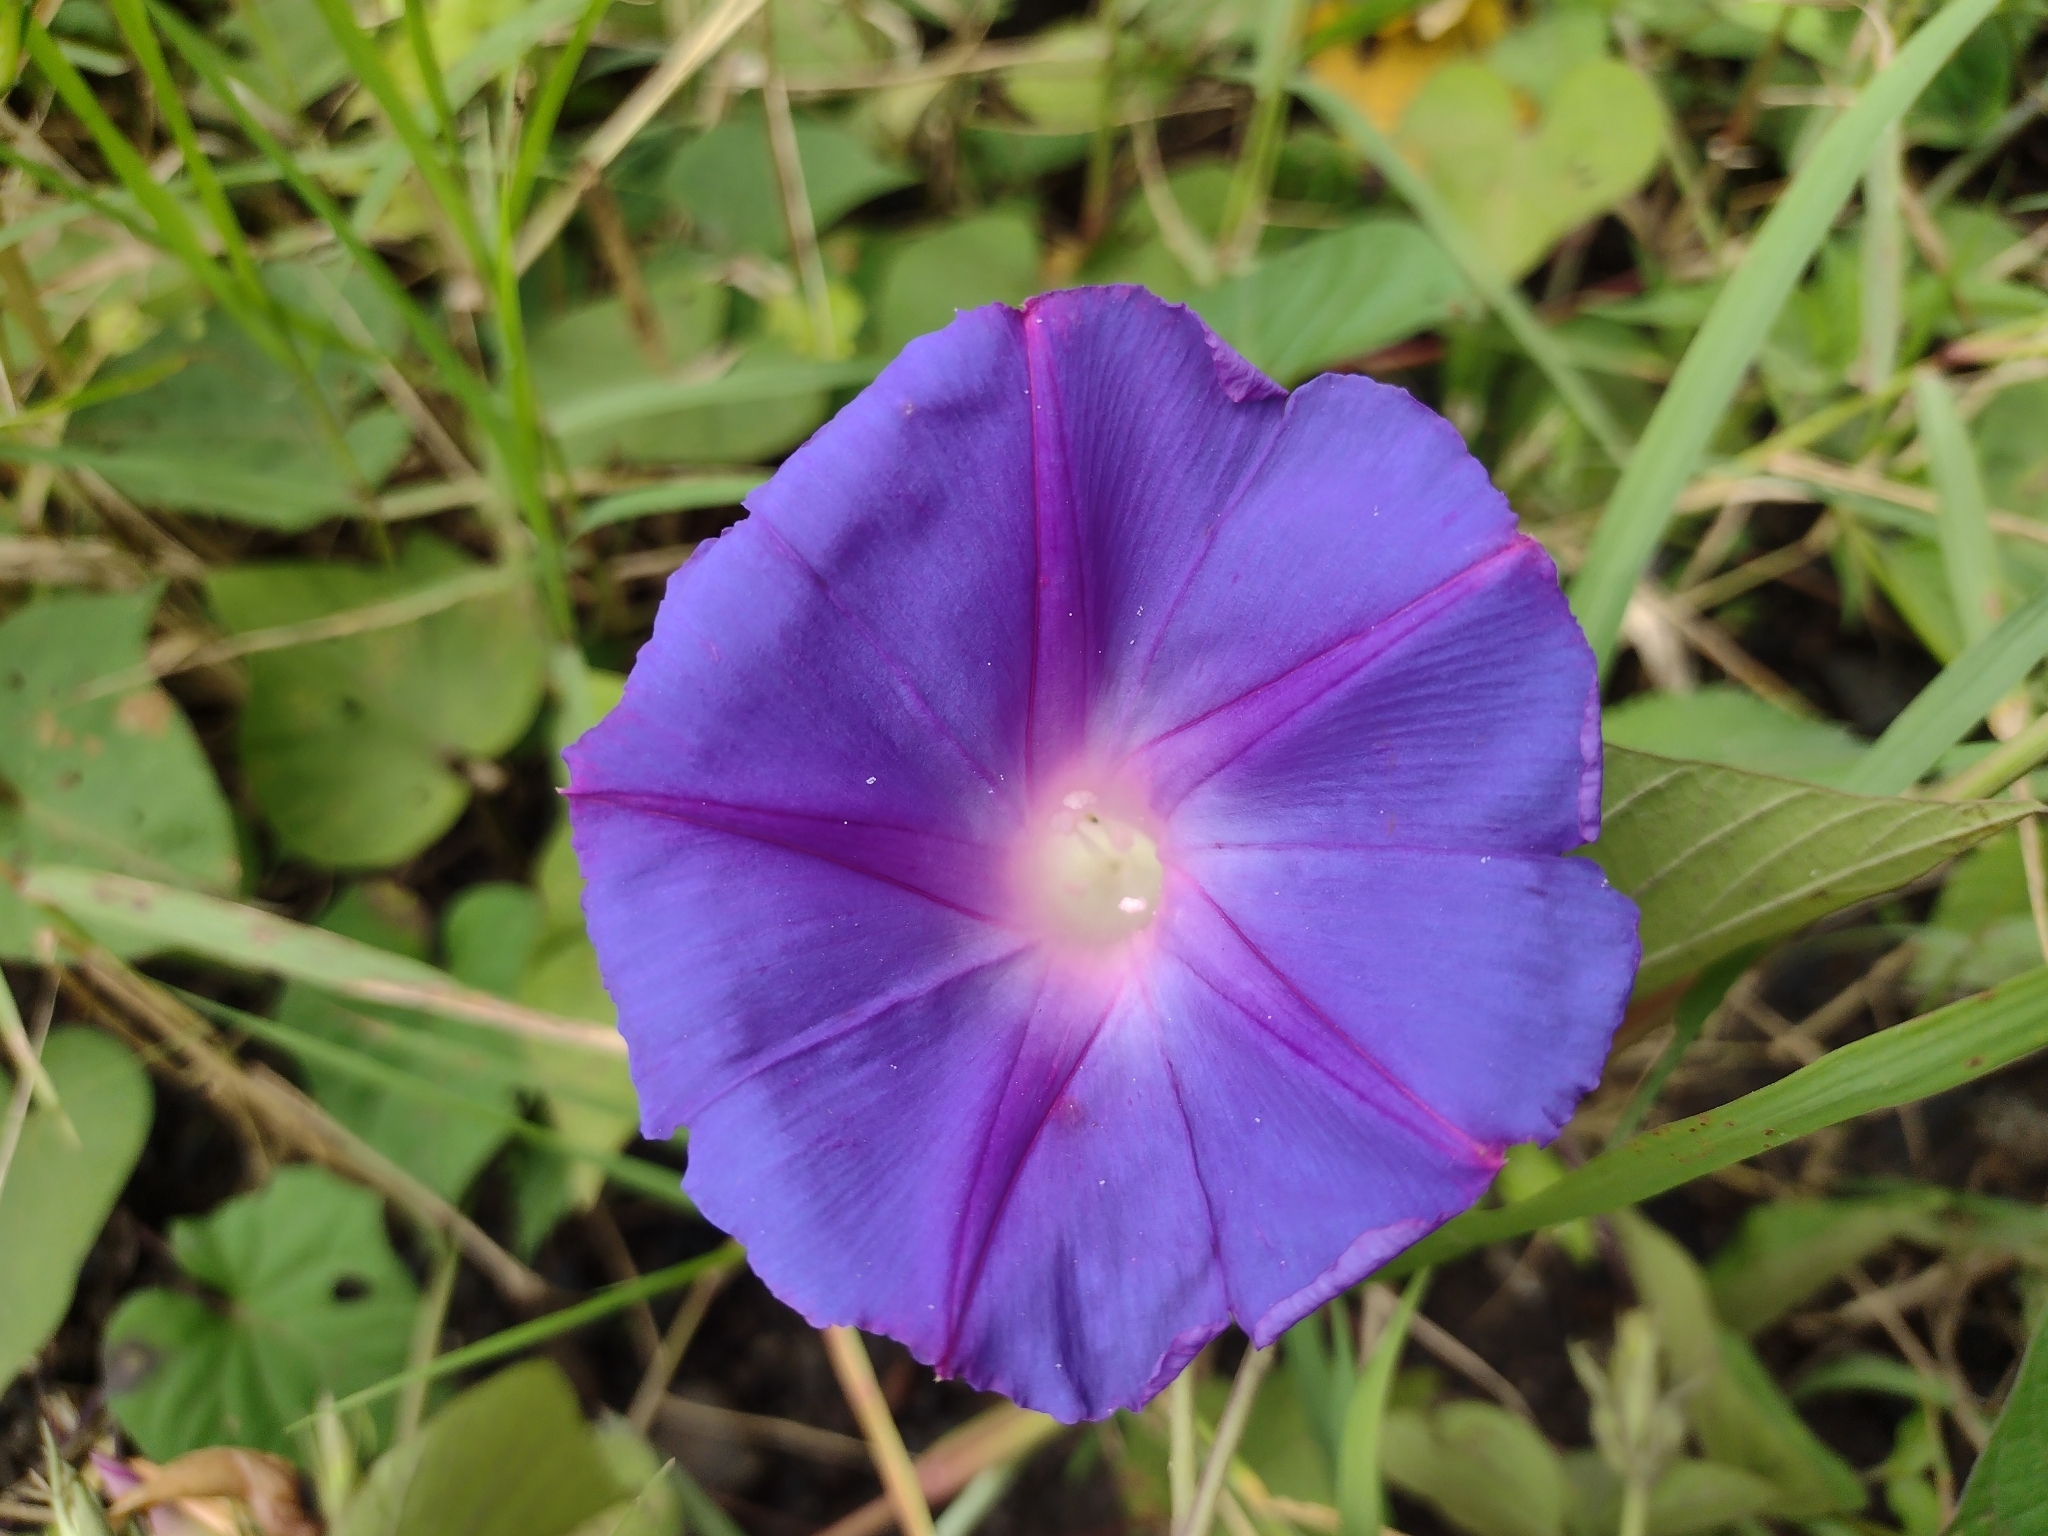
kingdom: Plantae
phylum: Tracheophyta
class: Magnoliopsida
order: Solanales
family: Convolvulaceae
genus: Ipomoea
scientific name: Ipomoea indica
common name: Blue dawnflower
